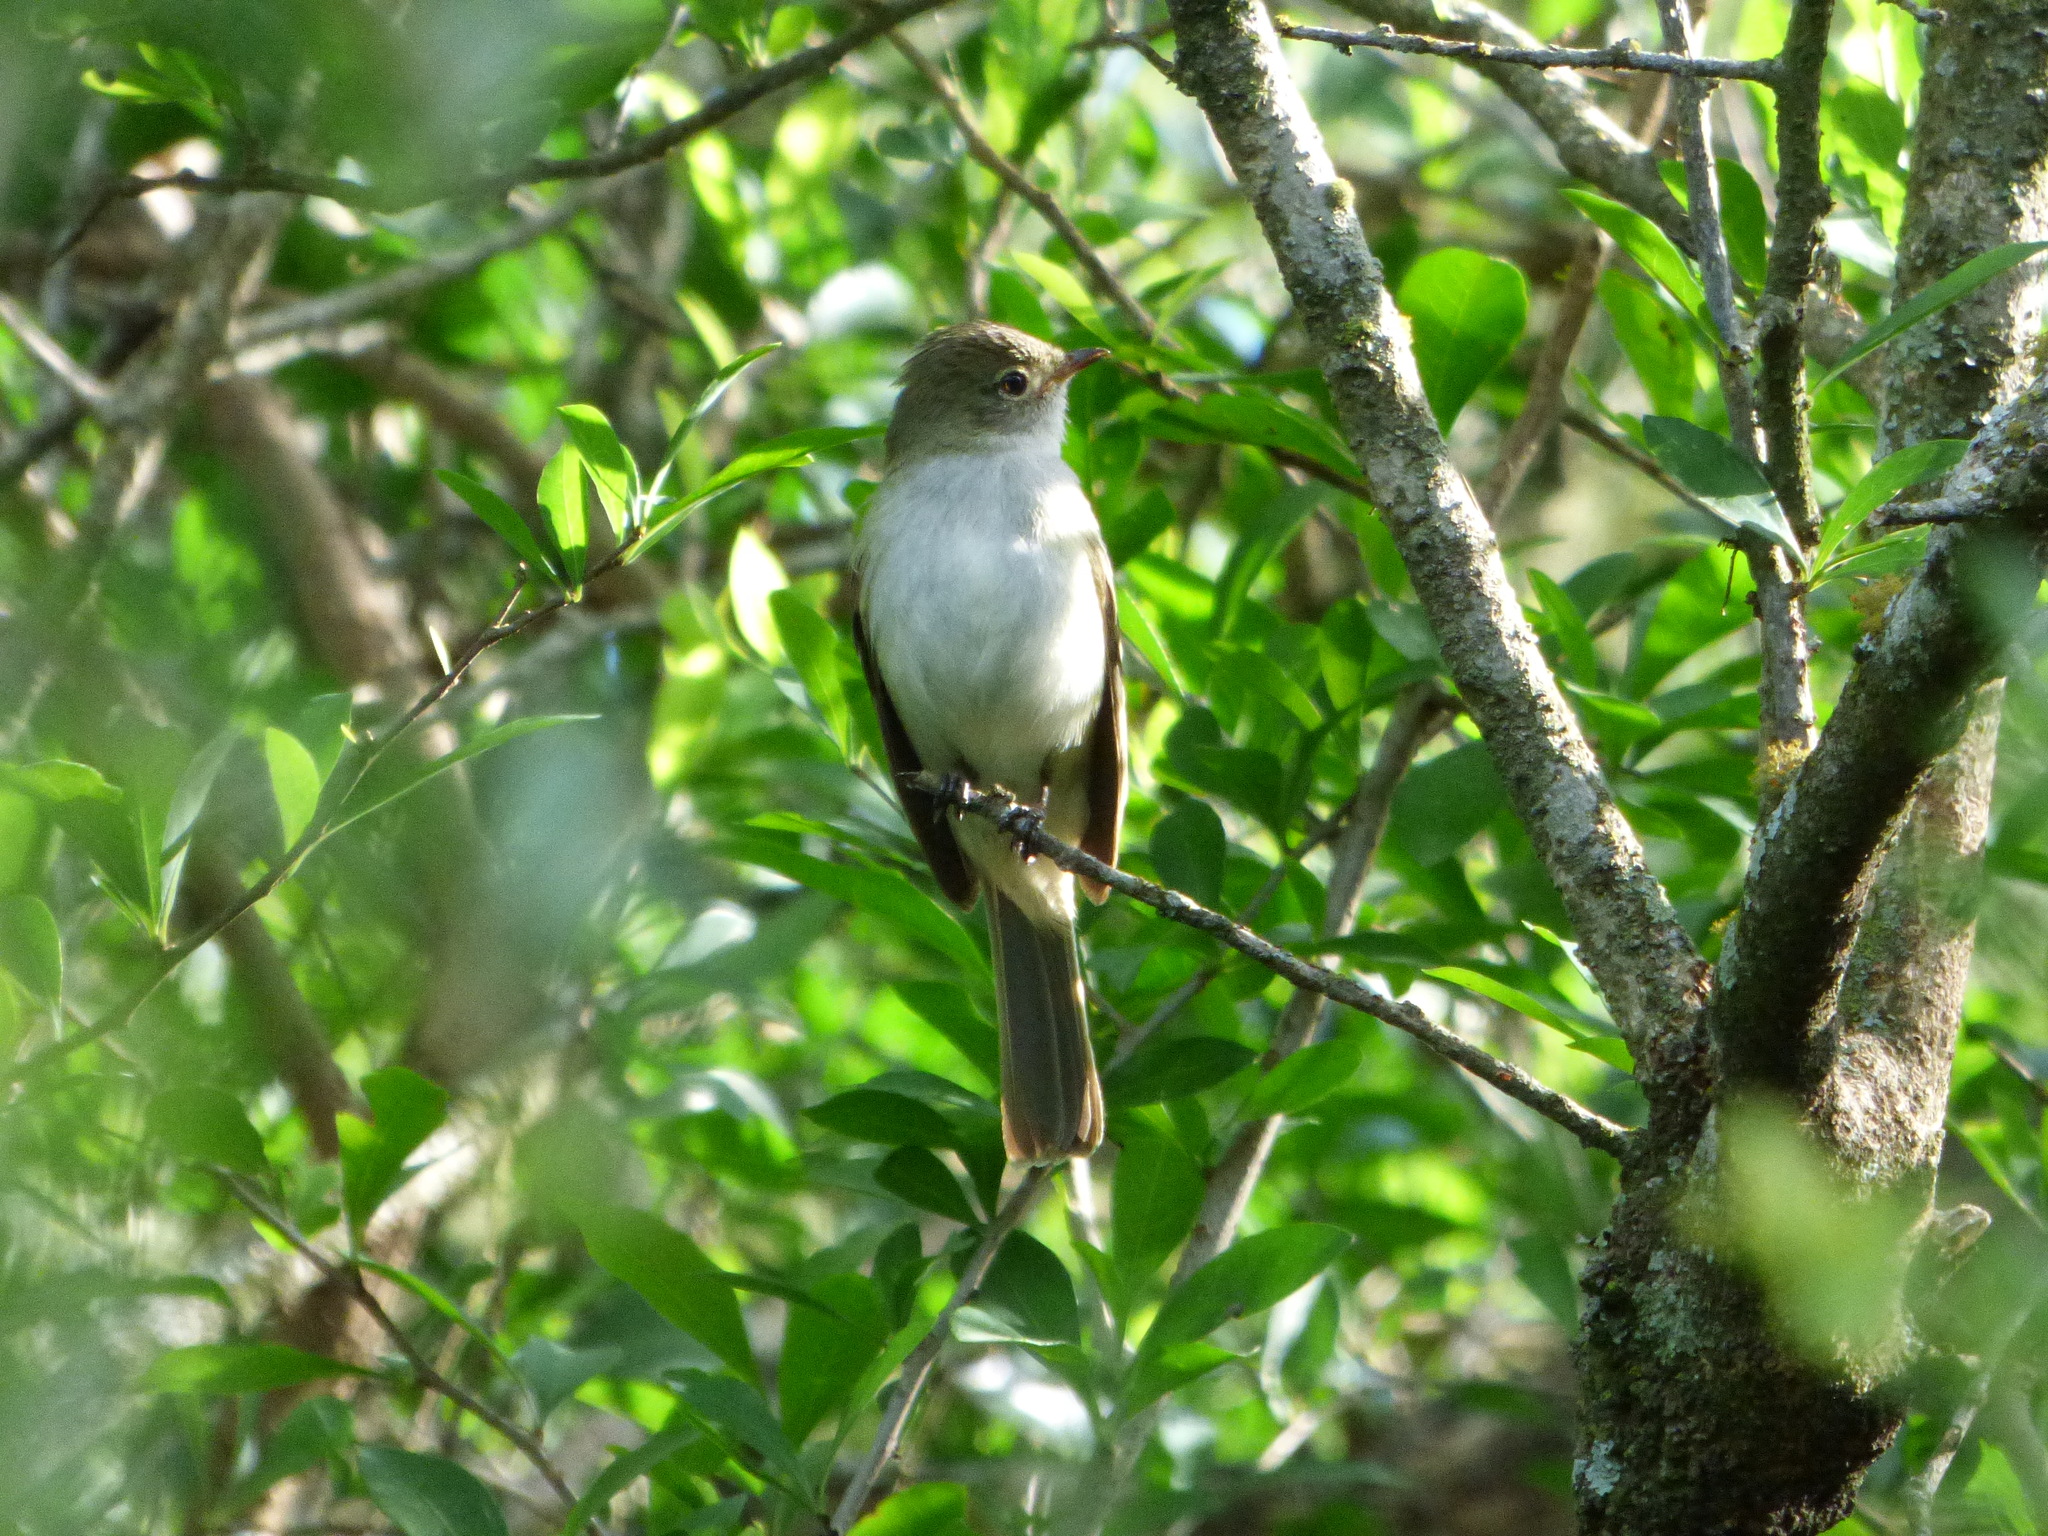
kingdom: Animalia
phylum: Chordata
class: Aves
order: Passeriformes
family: Tyrannidae
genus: Elaenia
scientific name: Elaenia parvirostris
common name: Small-billed elaenia
